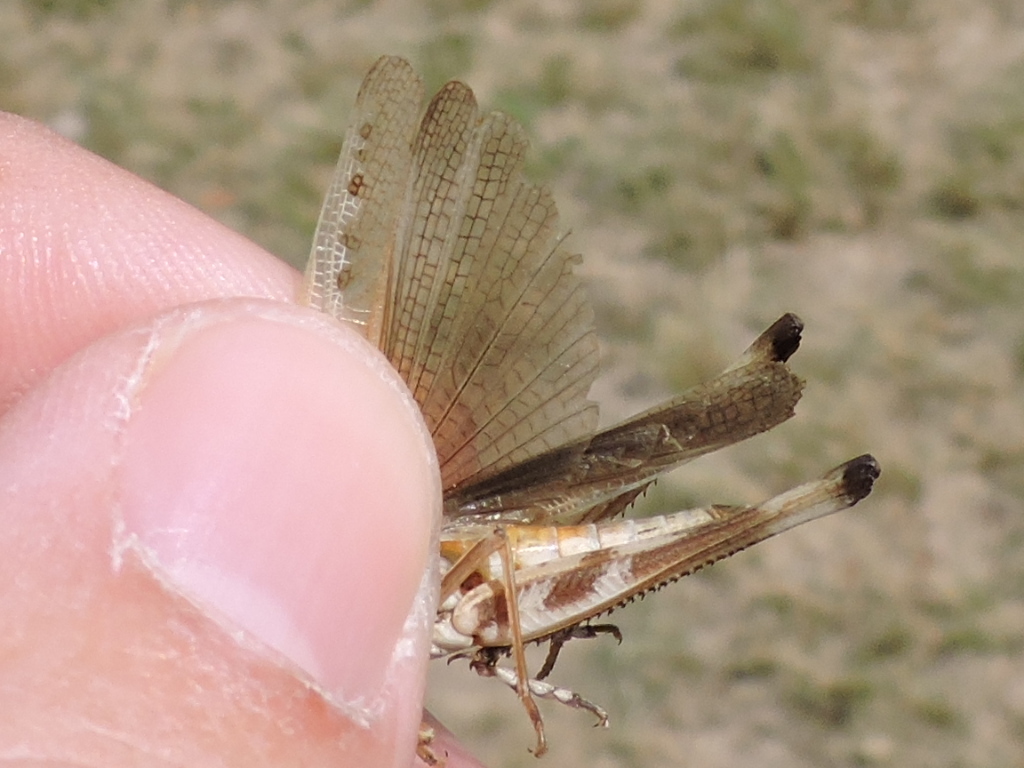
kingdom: Animalia
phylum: Arthropoda
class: Insecta
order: Orthoptera
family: Acrididae
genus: Syrbula
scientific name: Syrbula admirabilis
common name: Handsome grasshopper
